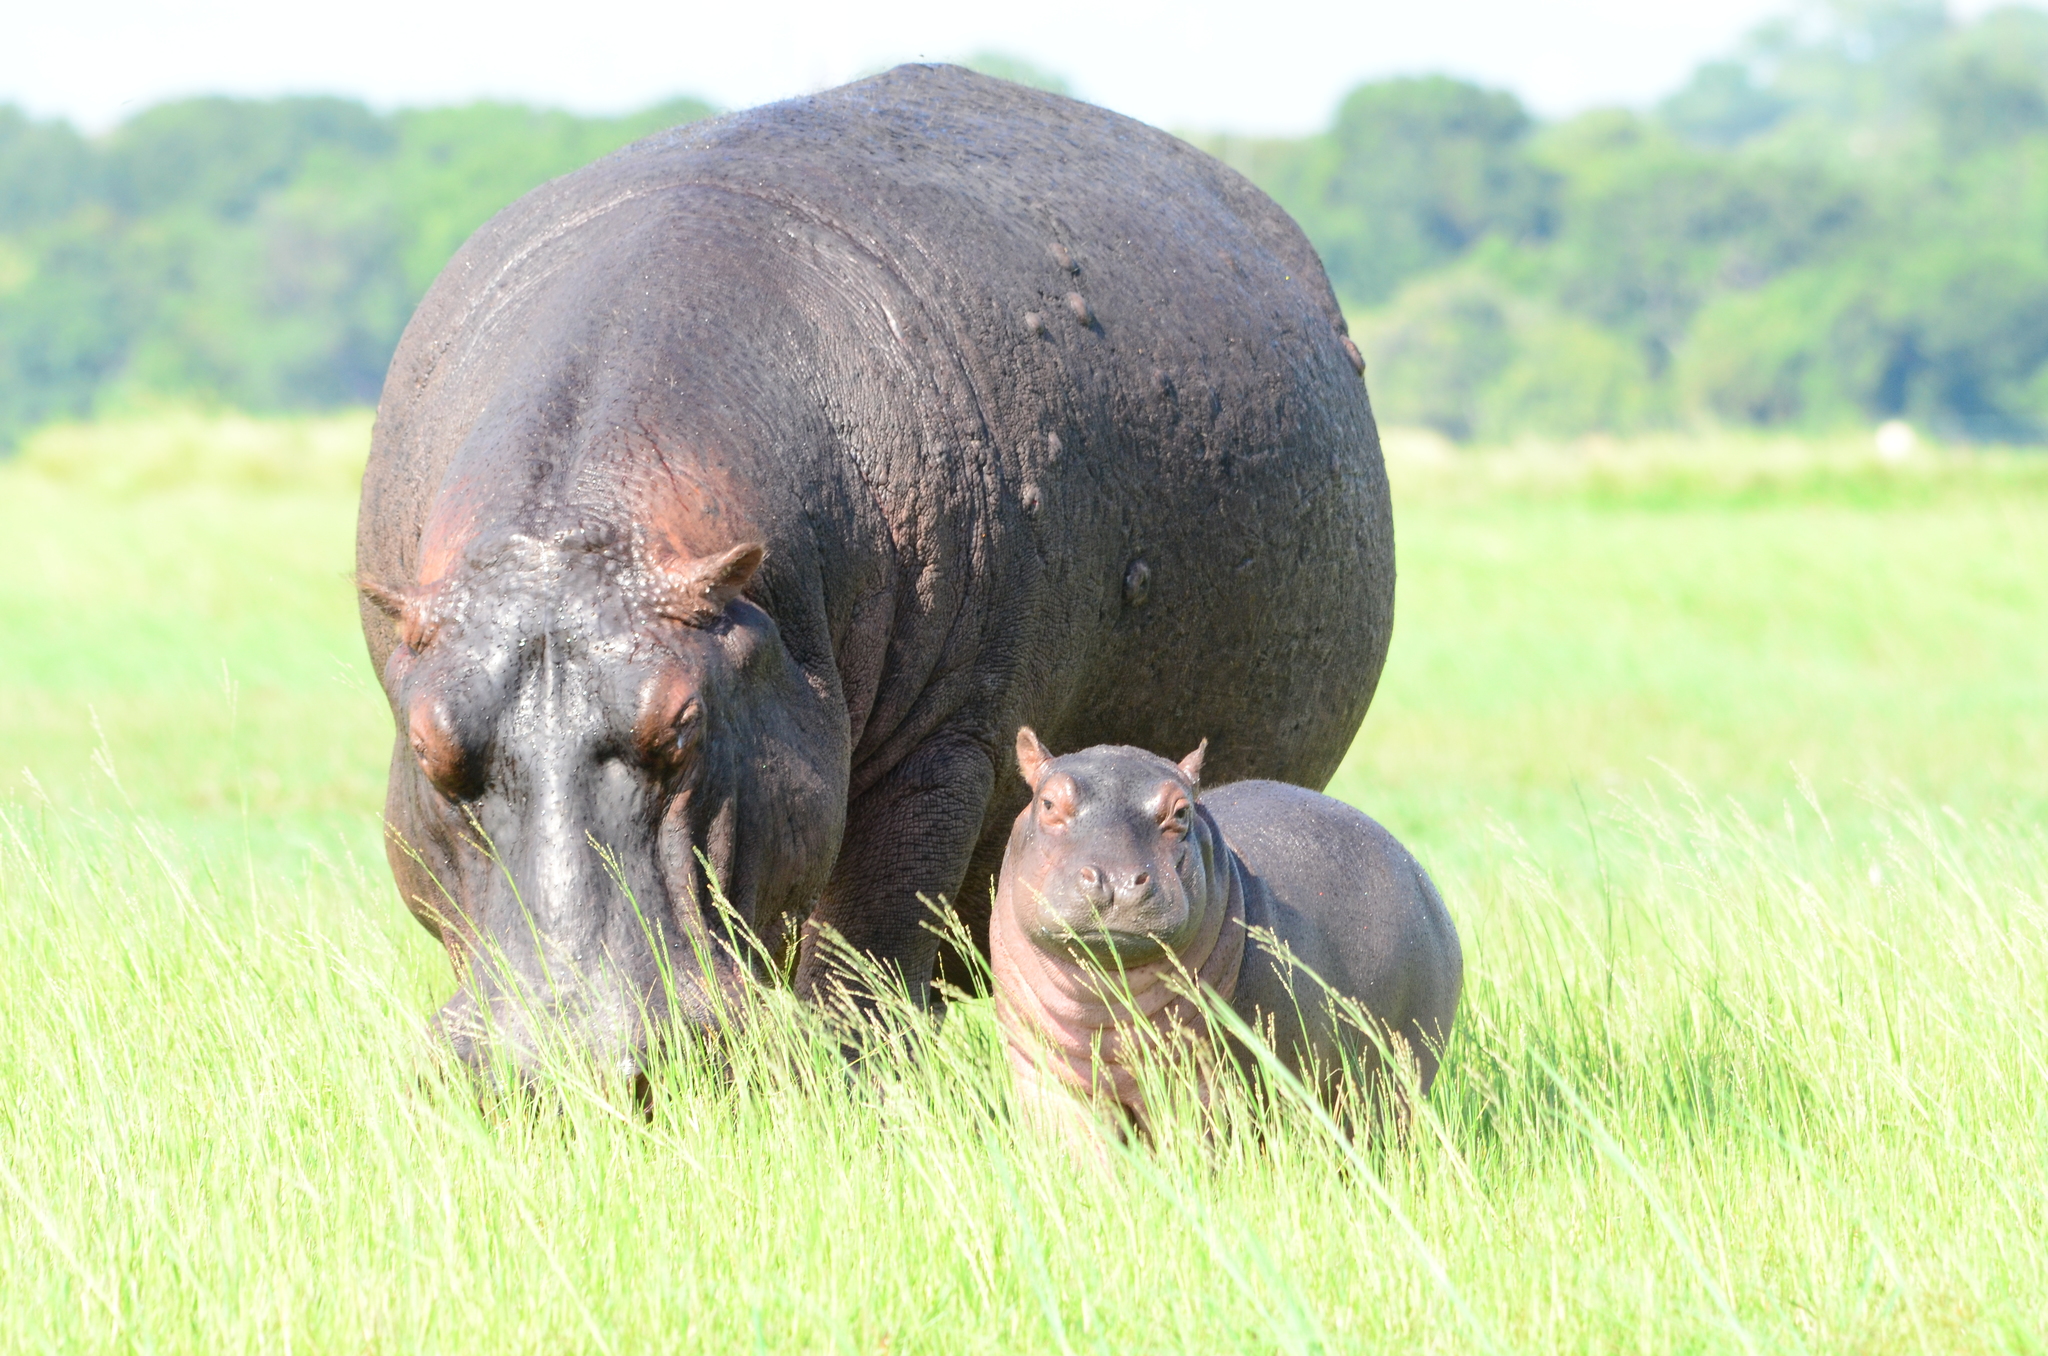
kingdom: Animalia
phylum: Chordata
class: Mammalia
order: Artiodactyla
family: Hippopotamidae
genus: Hippopotamus
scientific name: Hippopotamus amphibius
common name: Common hippopotamus
